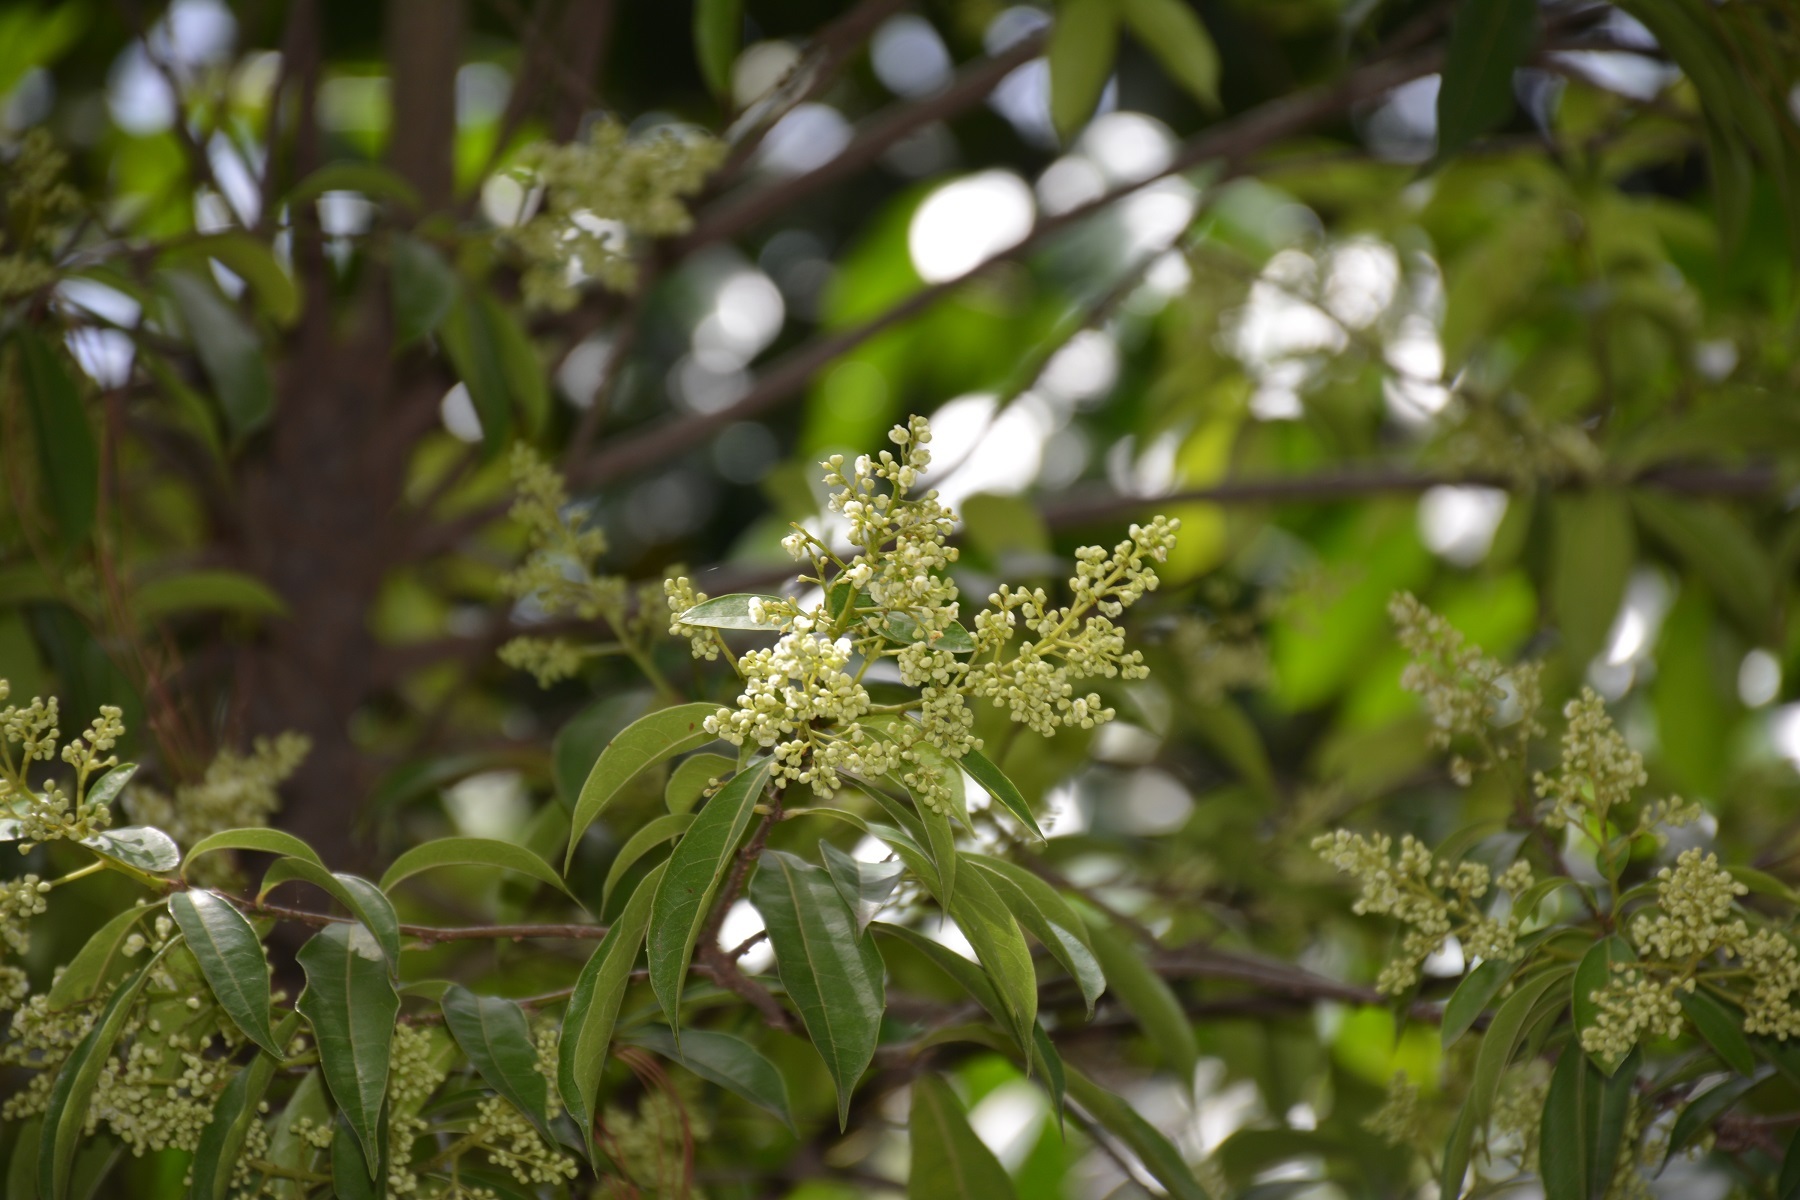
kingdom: Plantae
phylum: Tracheophyta
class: Magnoliopsida
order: Proteales
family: Sabiaceae
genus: Meliosma
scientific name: Meliosma dentata
